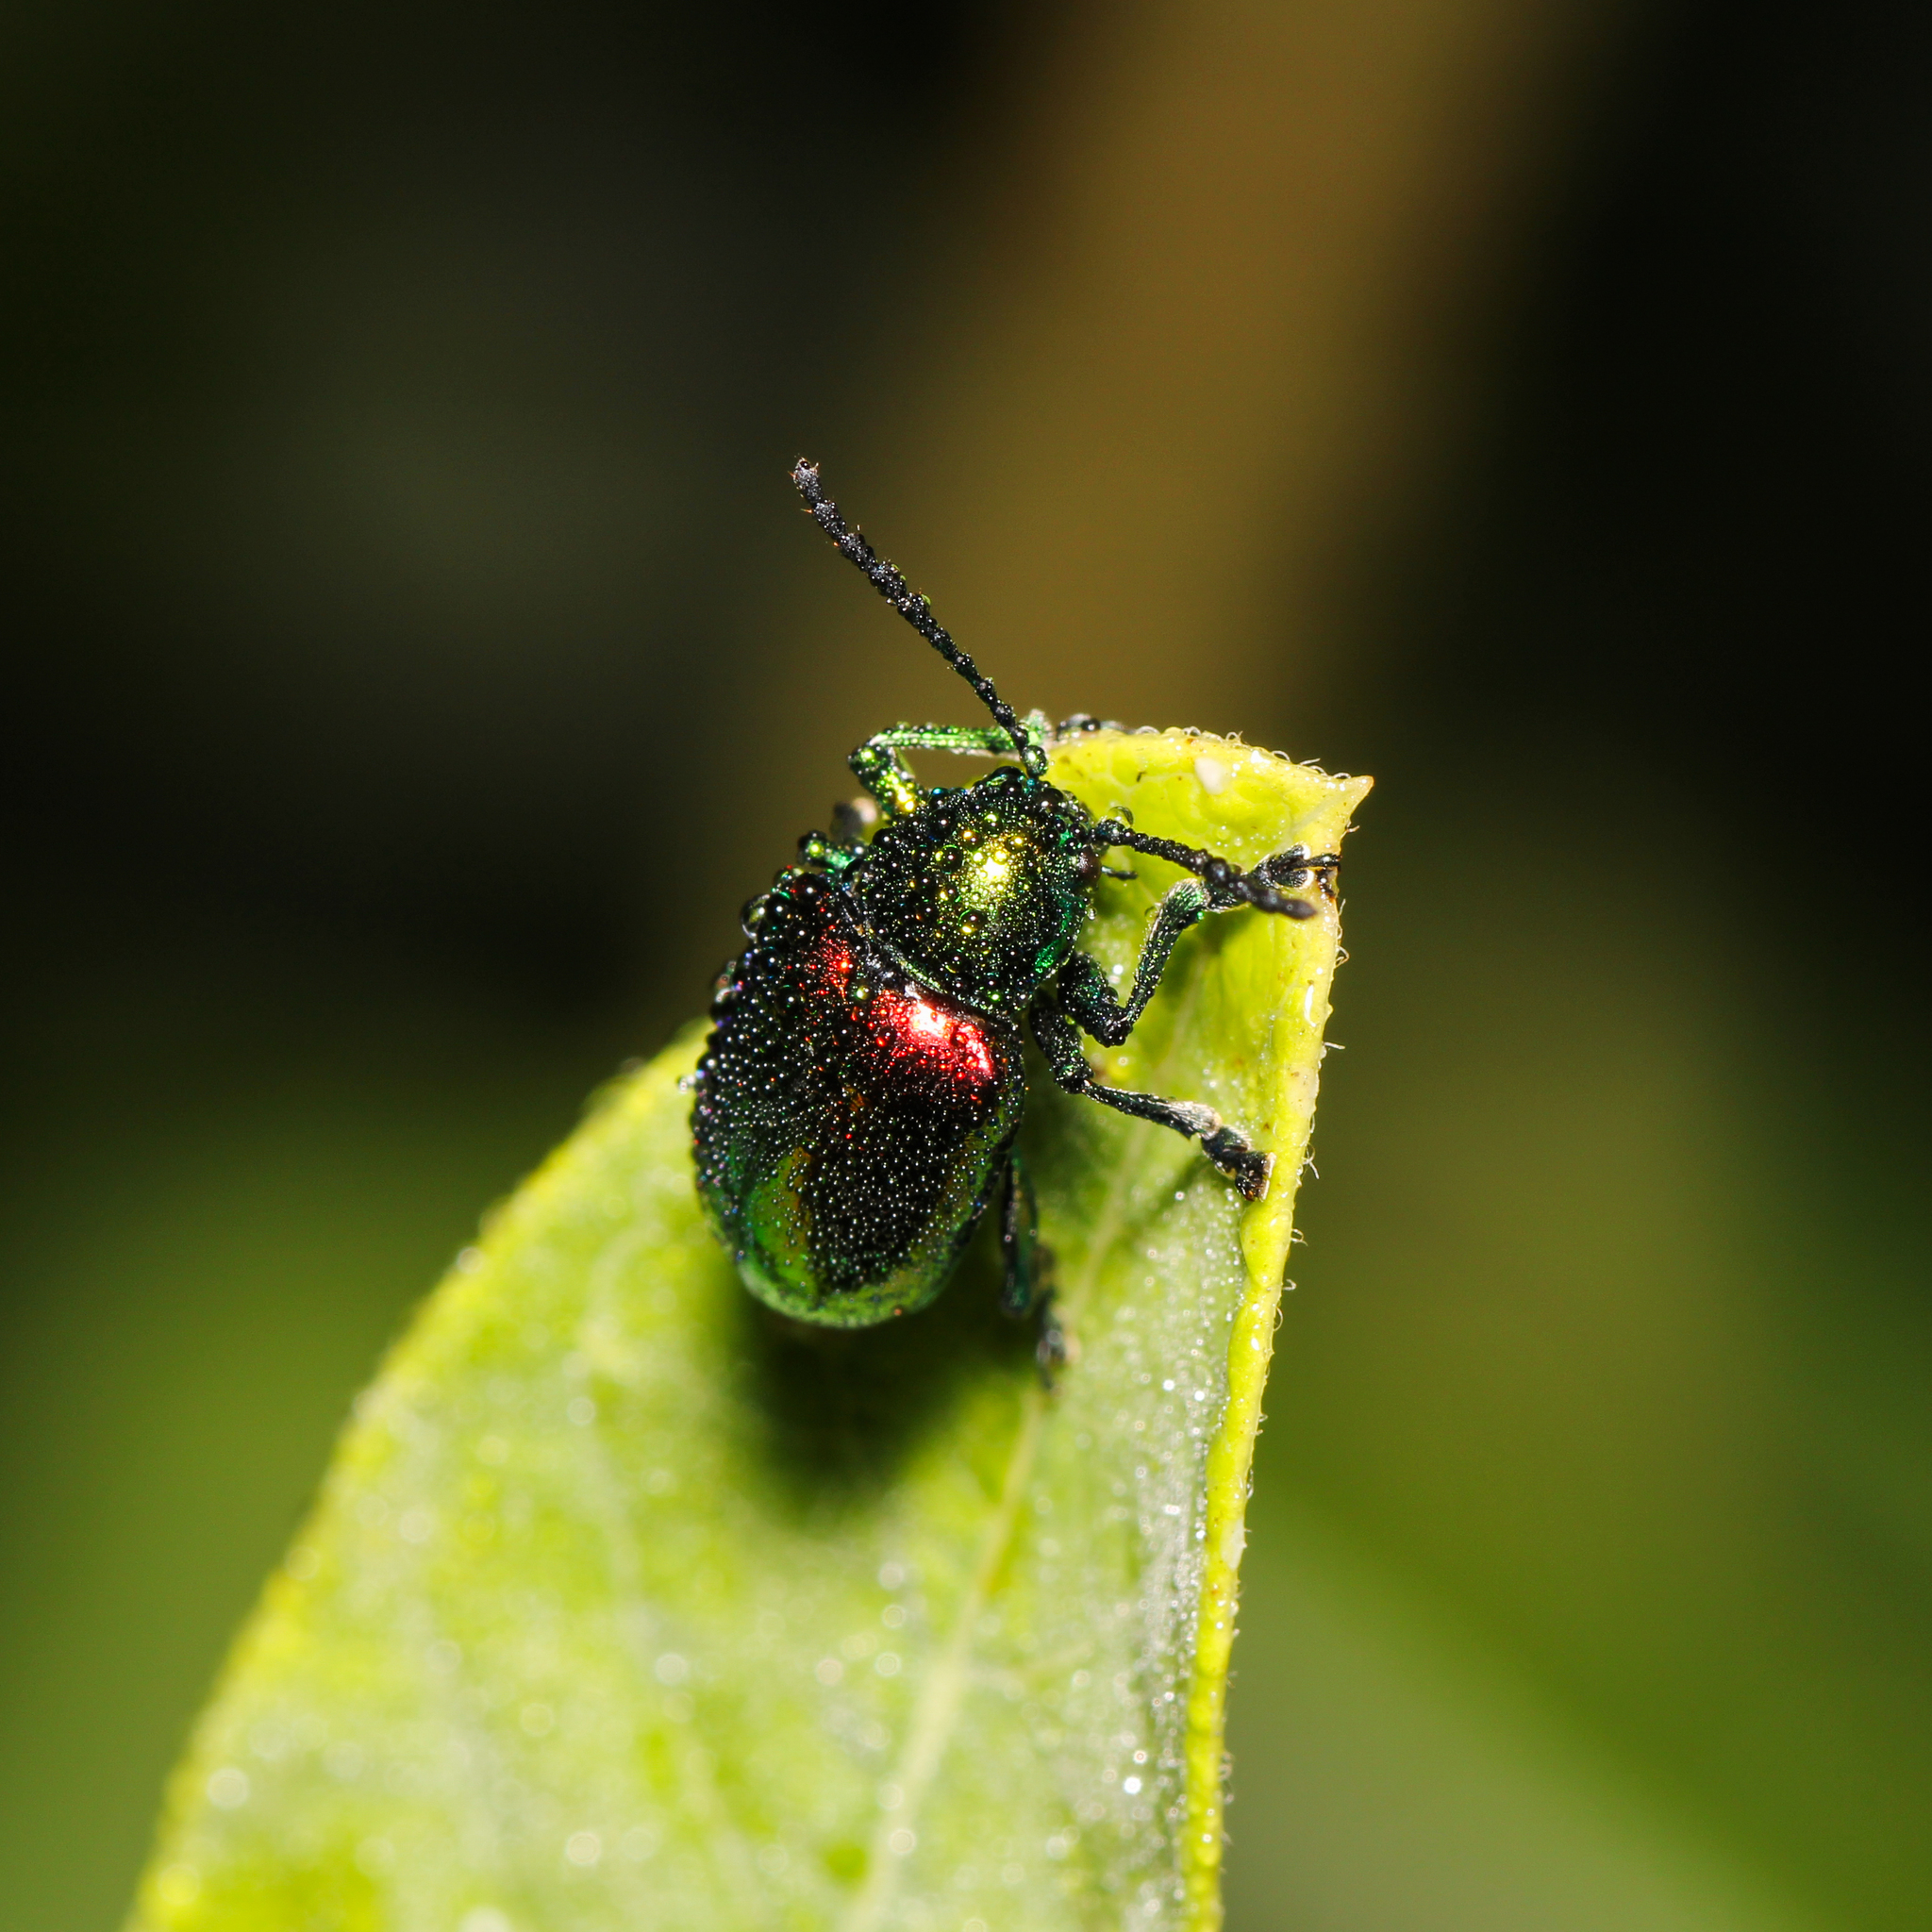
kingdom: Animalia
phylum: Arthropoda
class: Insecta
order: Coleoptera
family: Chrysomelidae
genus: Chrysochus
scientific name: Chrysochus auratus
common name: Dogbane leaf beetle
